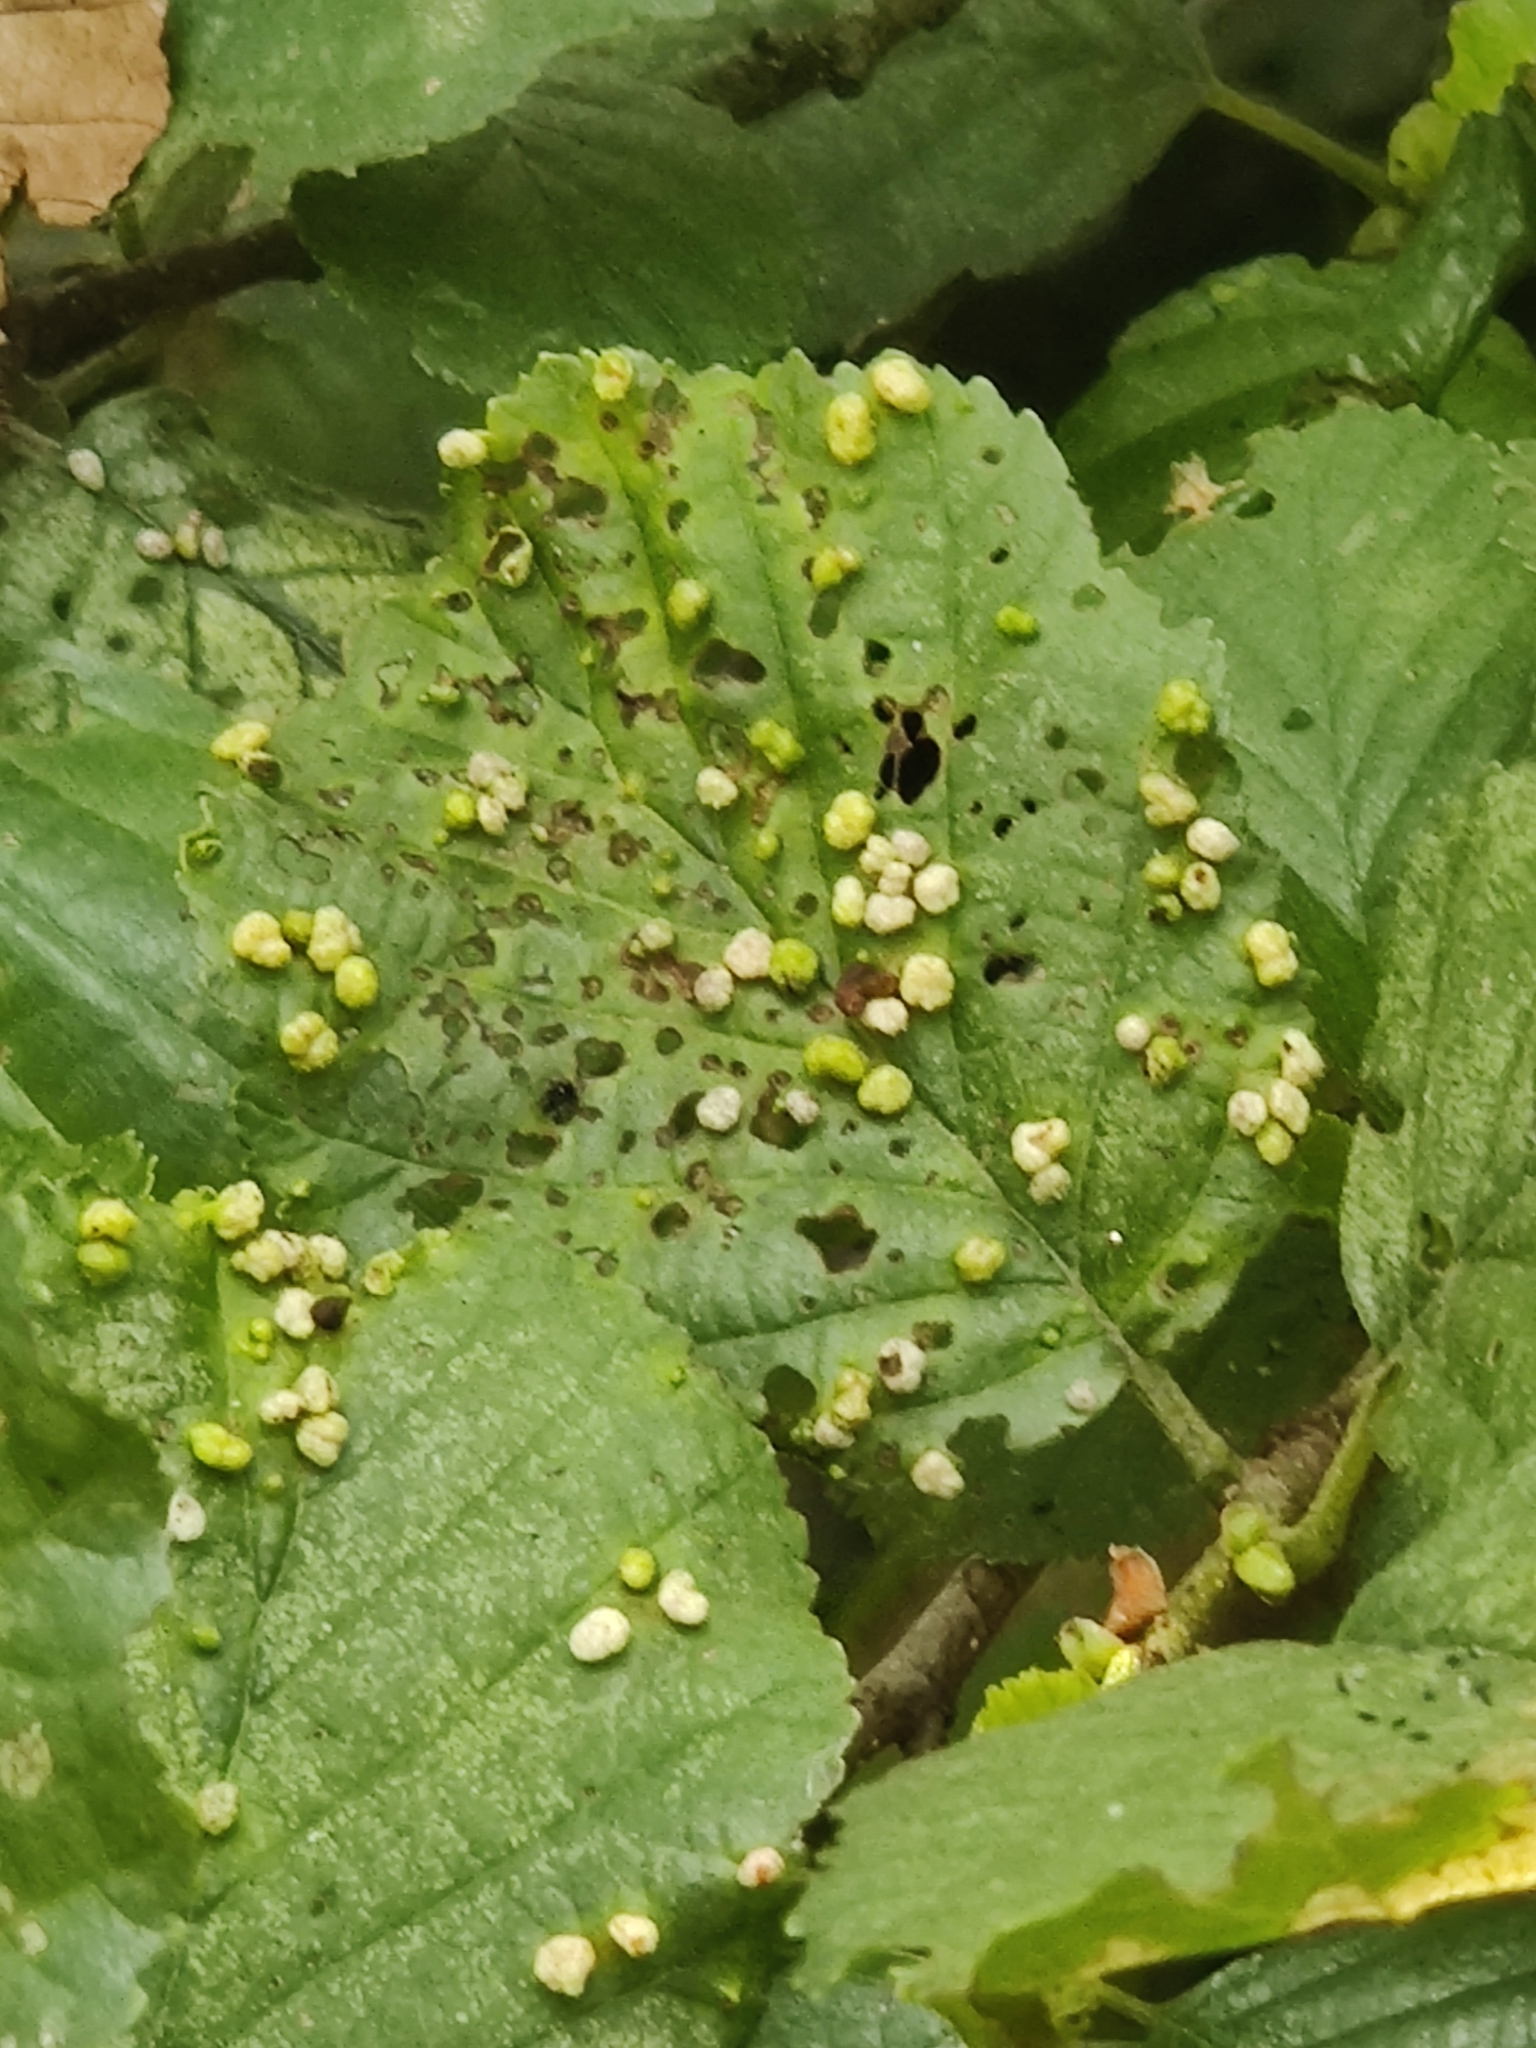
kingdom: Animalia
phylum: Arthropoda
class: Arachnida
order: Trombidiformes
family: Eriophyidae
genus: Eriophyes
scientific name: Eriophyes laevis
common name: Alder leaf gall mite
